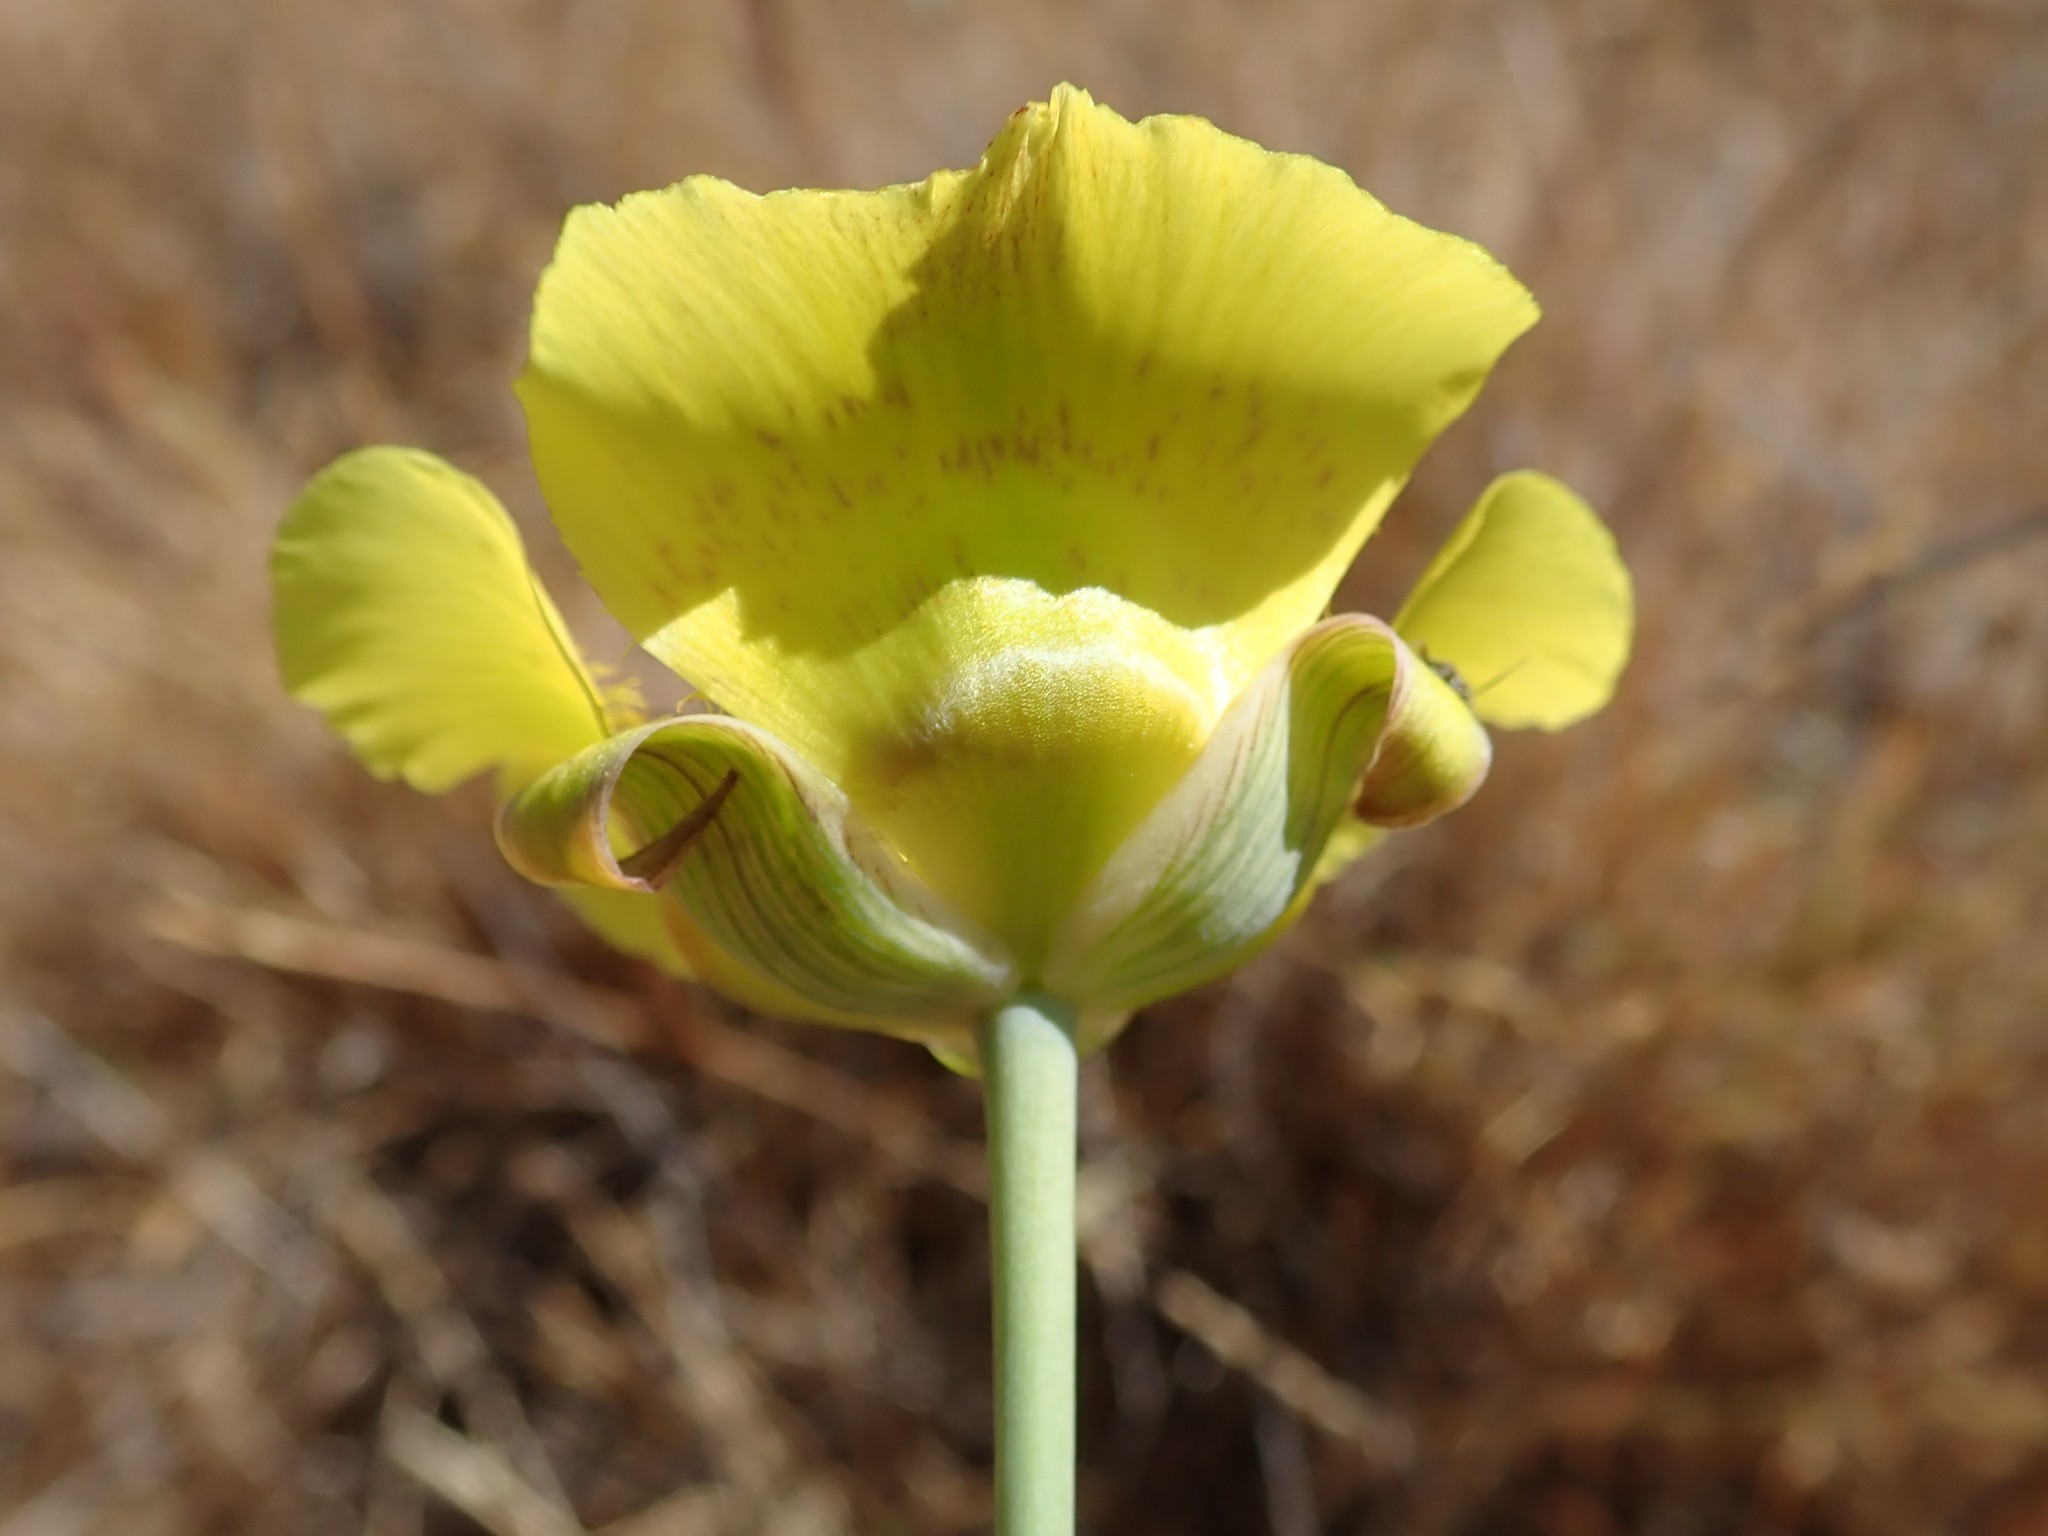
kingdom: Plantae
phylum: Tracheophyta
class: Liliopsida
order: Liliales
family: Liliaceae
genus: Calochortus
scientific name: Calochortus luteus
